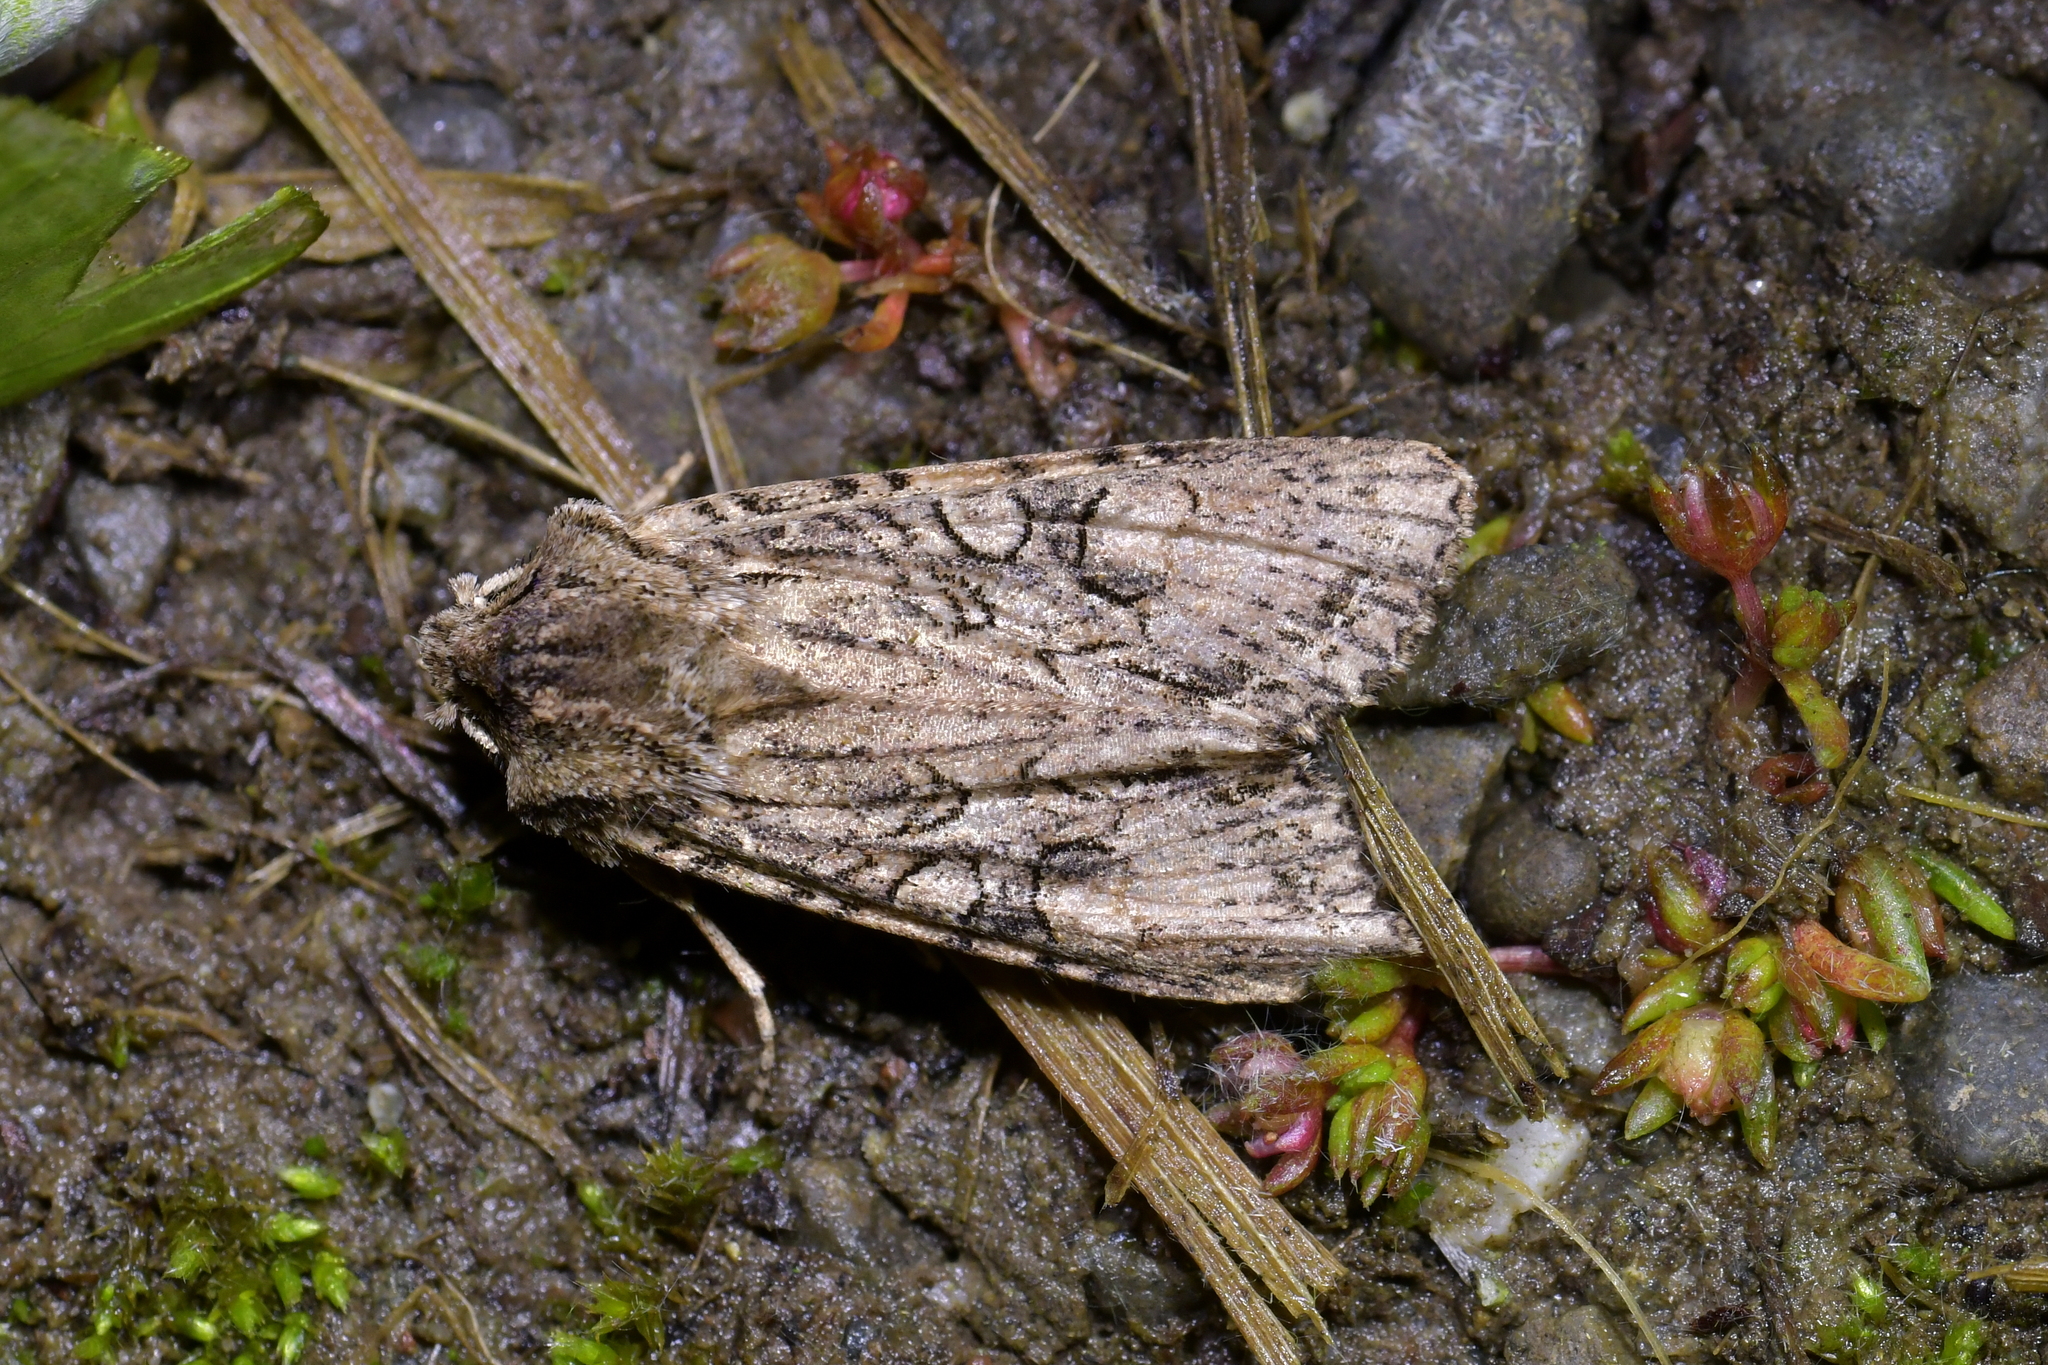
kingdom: Animalia
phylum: Arthropoda
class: Insecta
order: Lepidoptera
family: Noctuidae
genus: Ichneutica
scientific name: Ichneutica mutans
